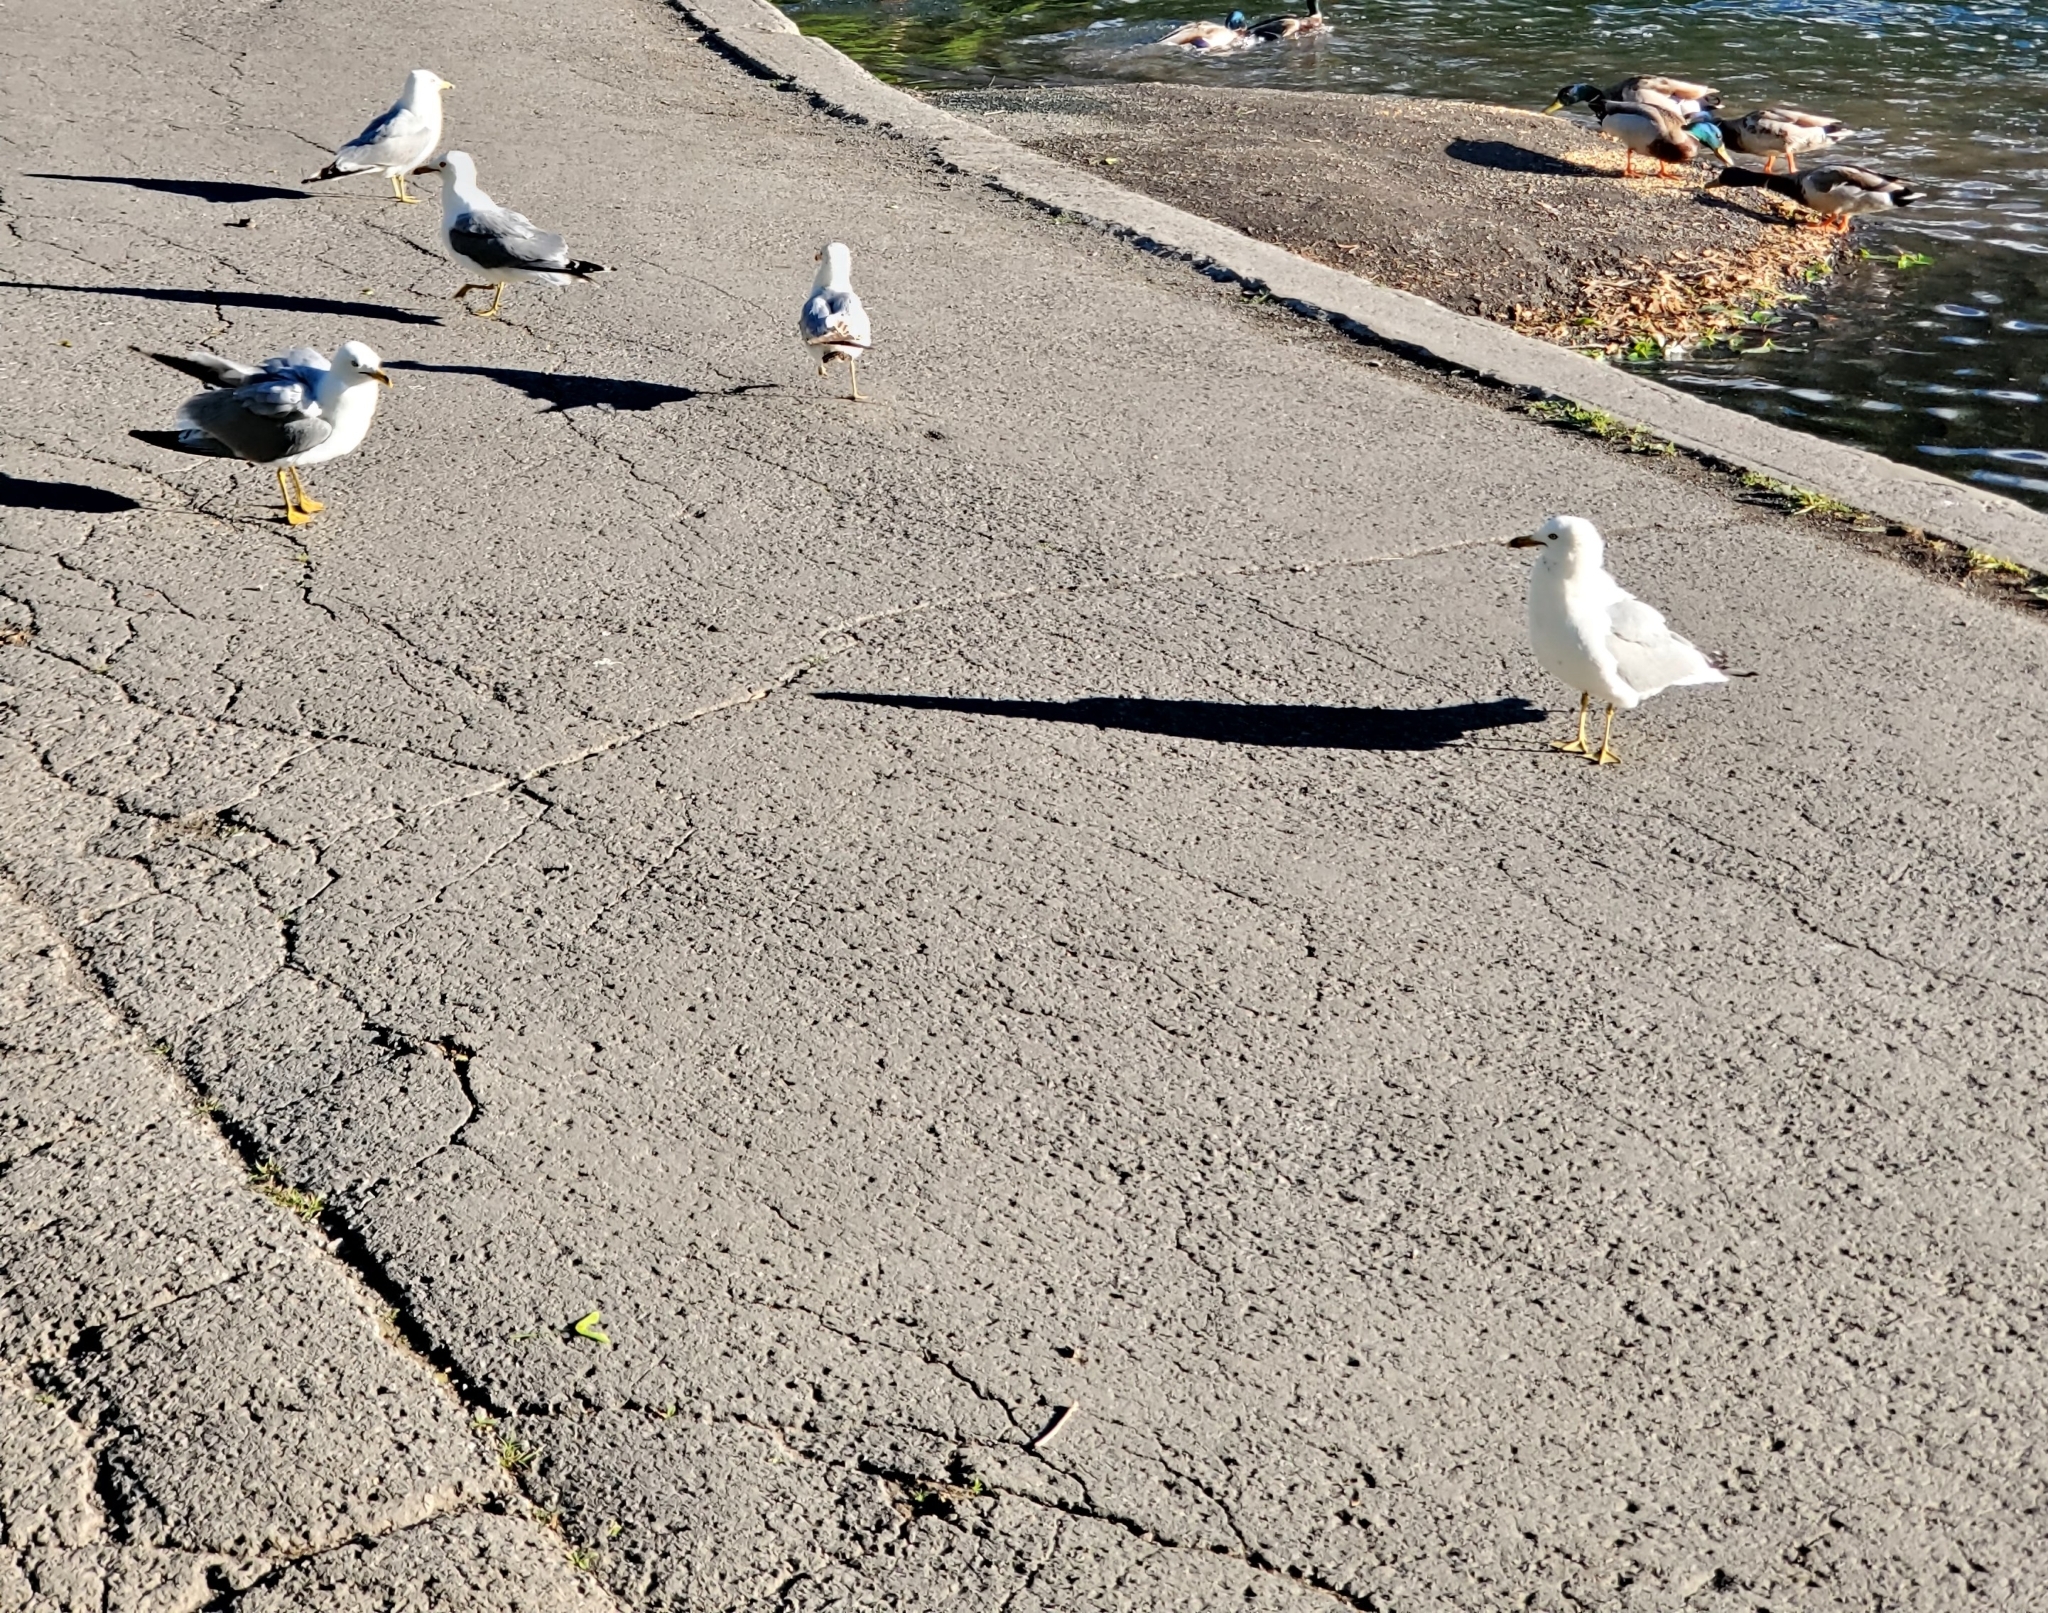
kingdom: Animalia
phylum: Chordata
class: Aves
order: Charadriiformes
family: Laridae
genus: Larus
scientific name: Larus delawarensis
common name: Ring-billed gull
